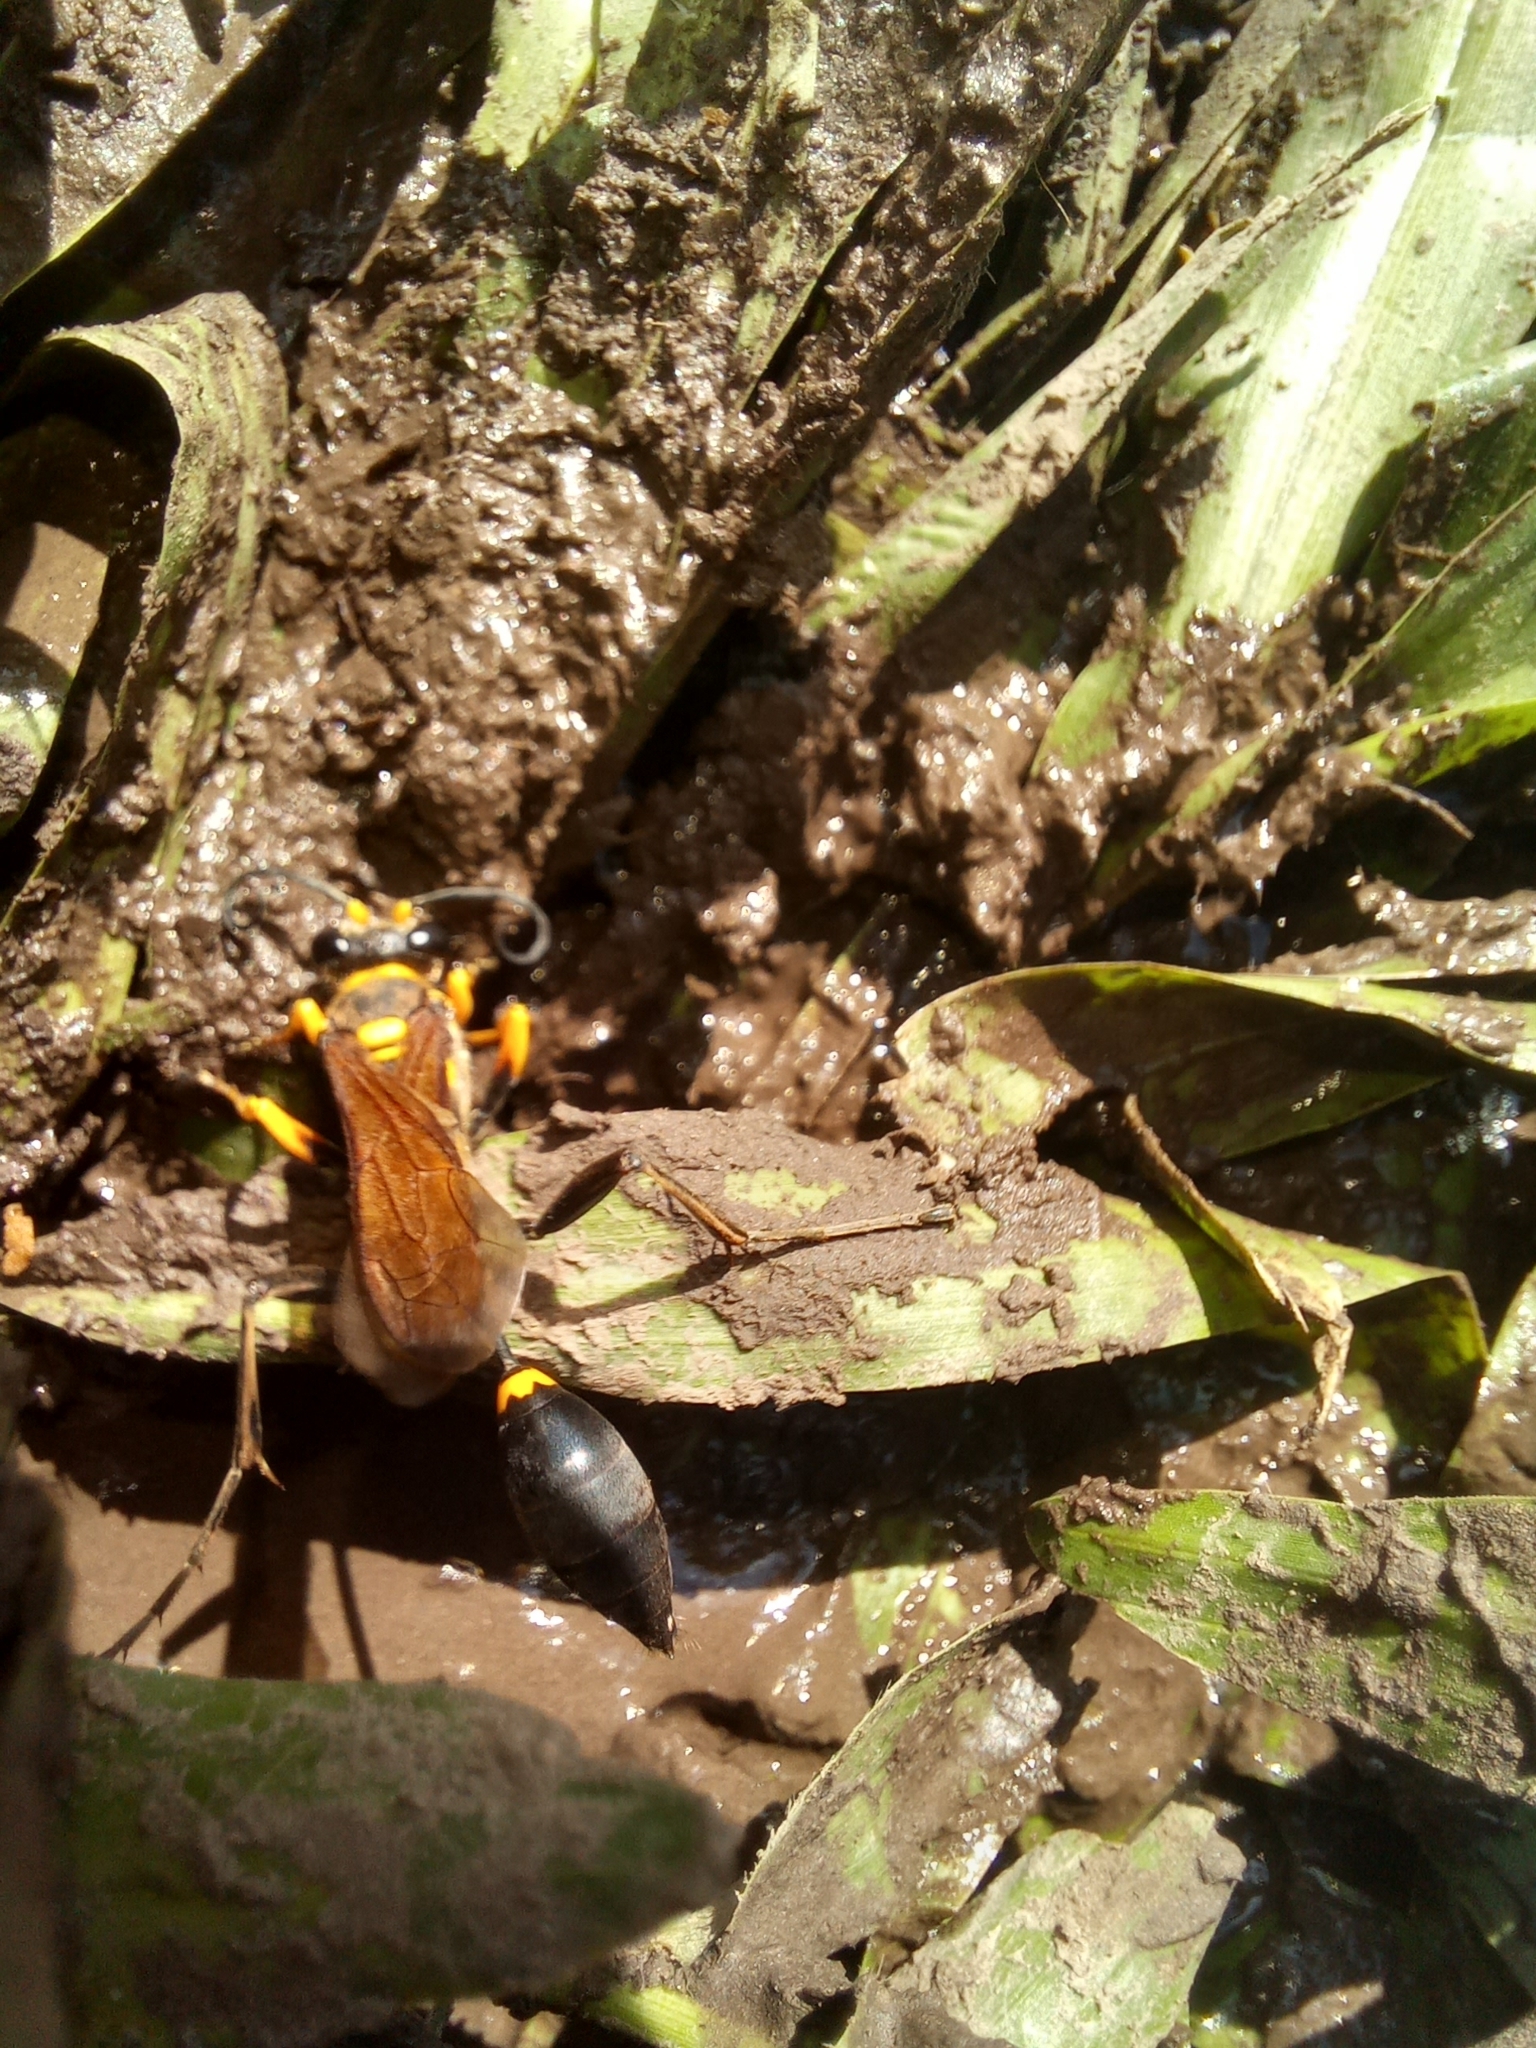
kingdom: Animalia
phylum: Arthropoda
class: Insecta
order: Hymenoptera
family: Sphecidae
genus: Sceliphron
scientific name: Sceliphron asiaticum
